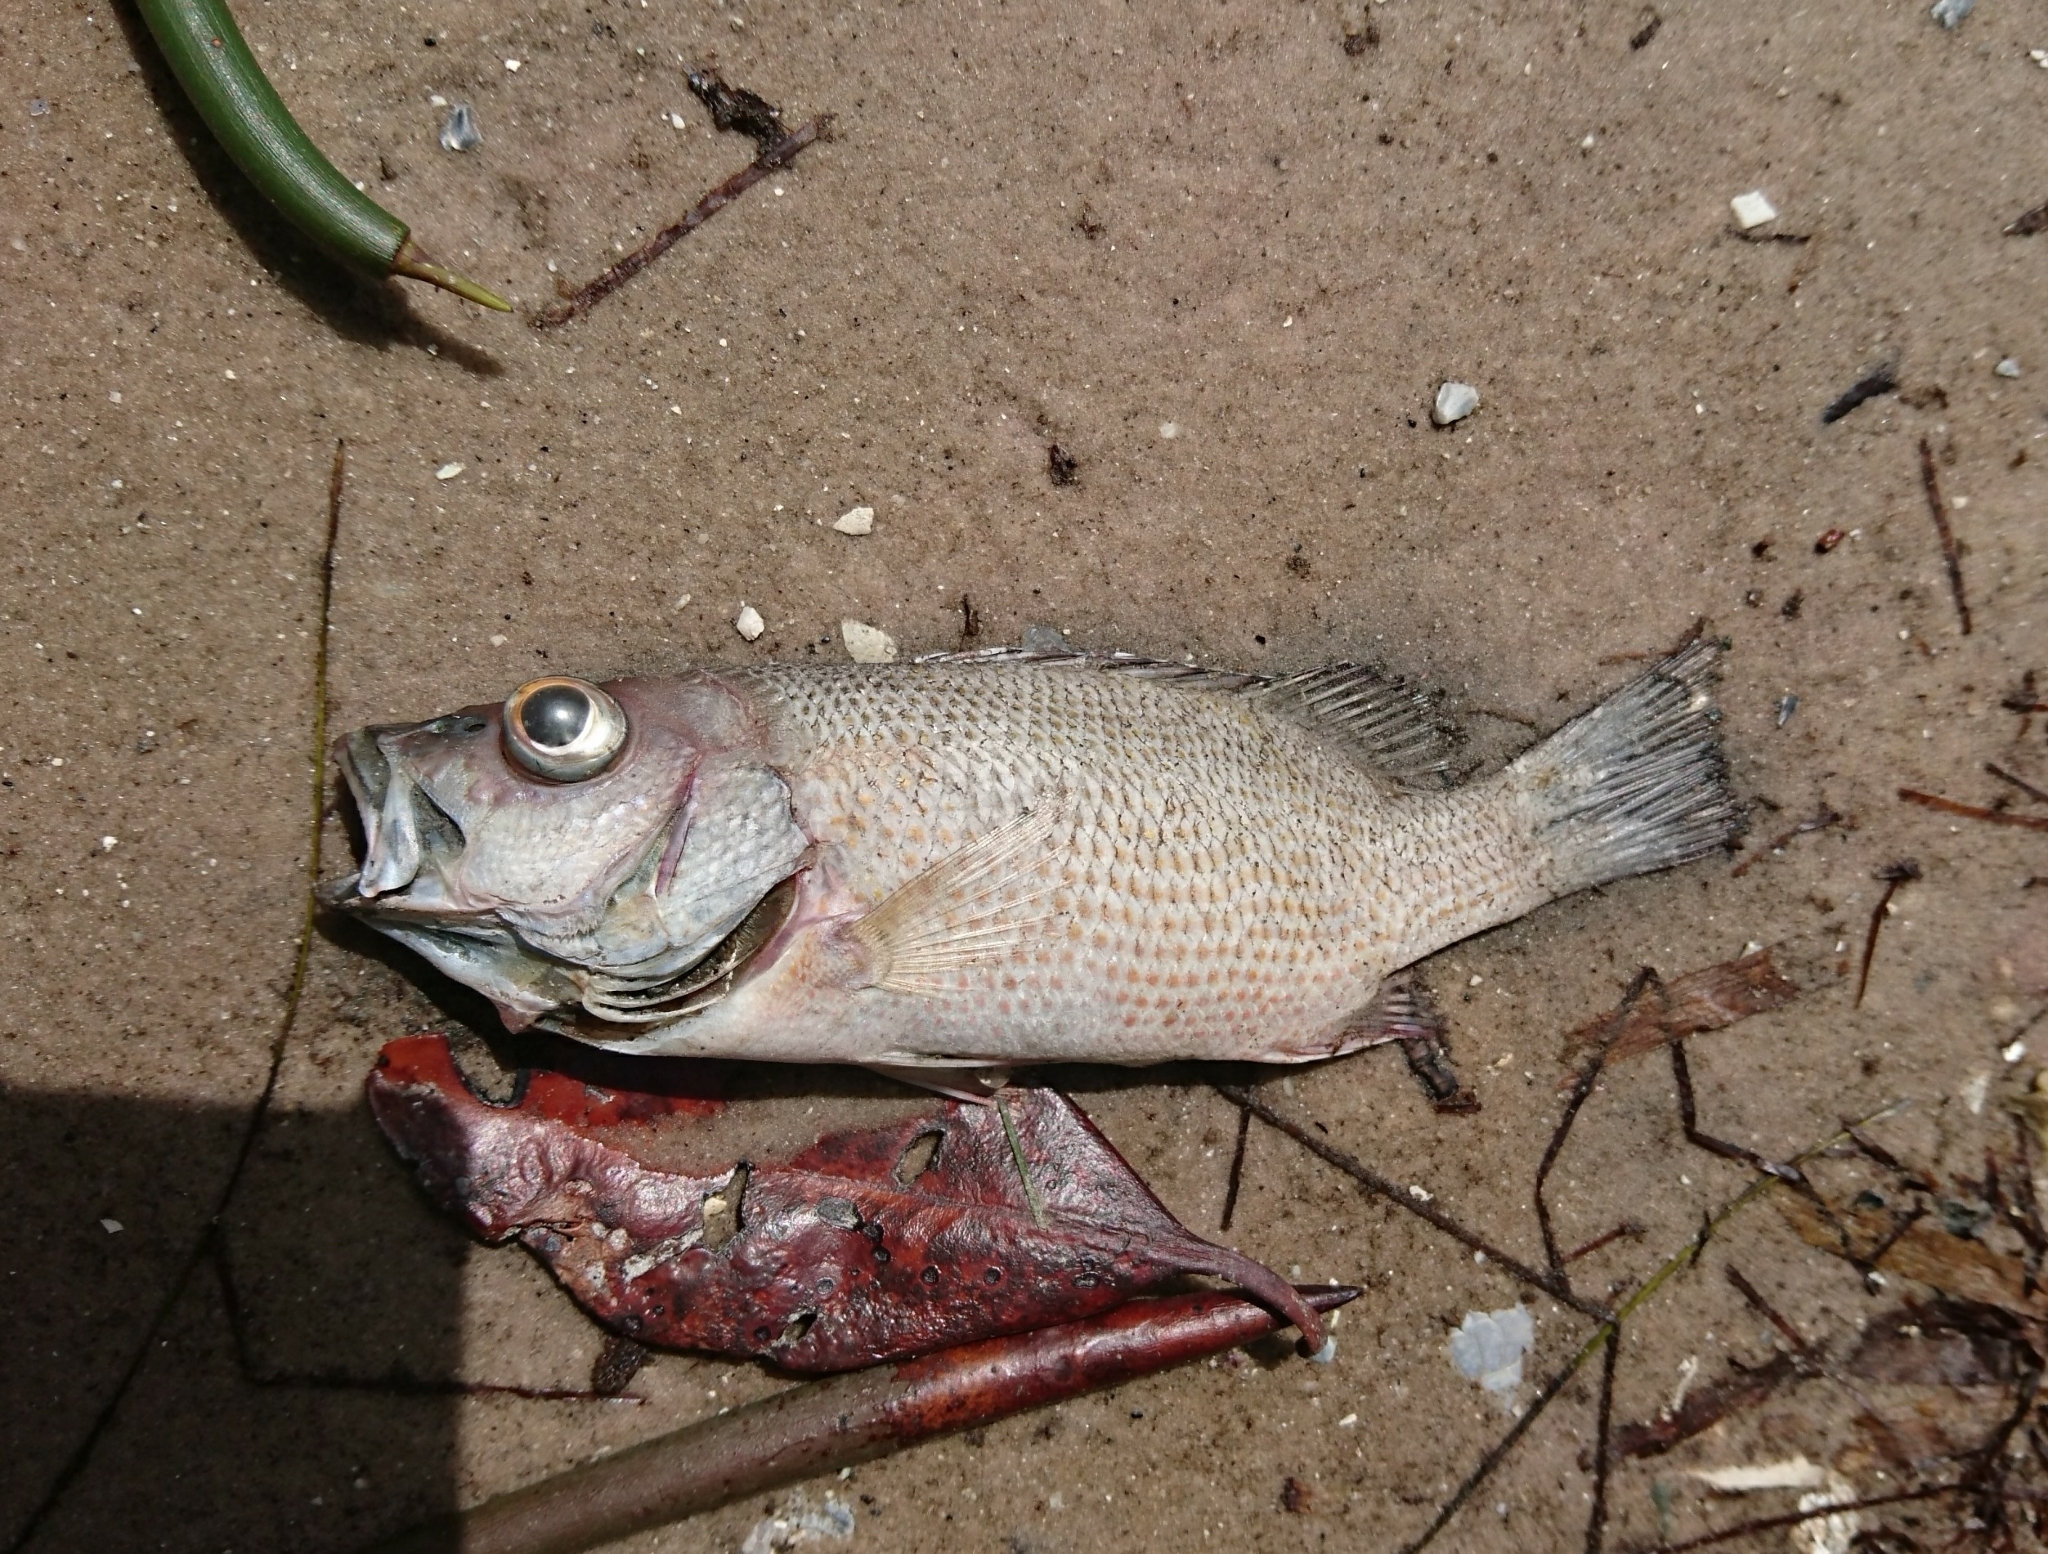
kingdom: Animalia
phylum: Chordata
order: Perciformes
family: Lutjanidae
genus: Lutjanus
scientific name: Lutjanus griseus
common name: Gray snapper
